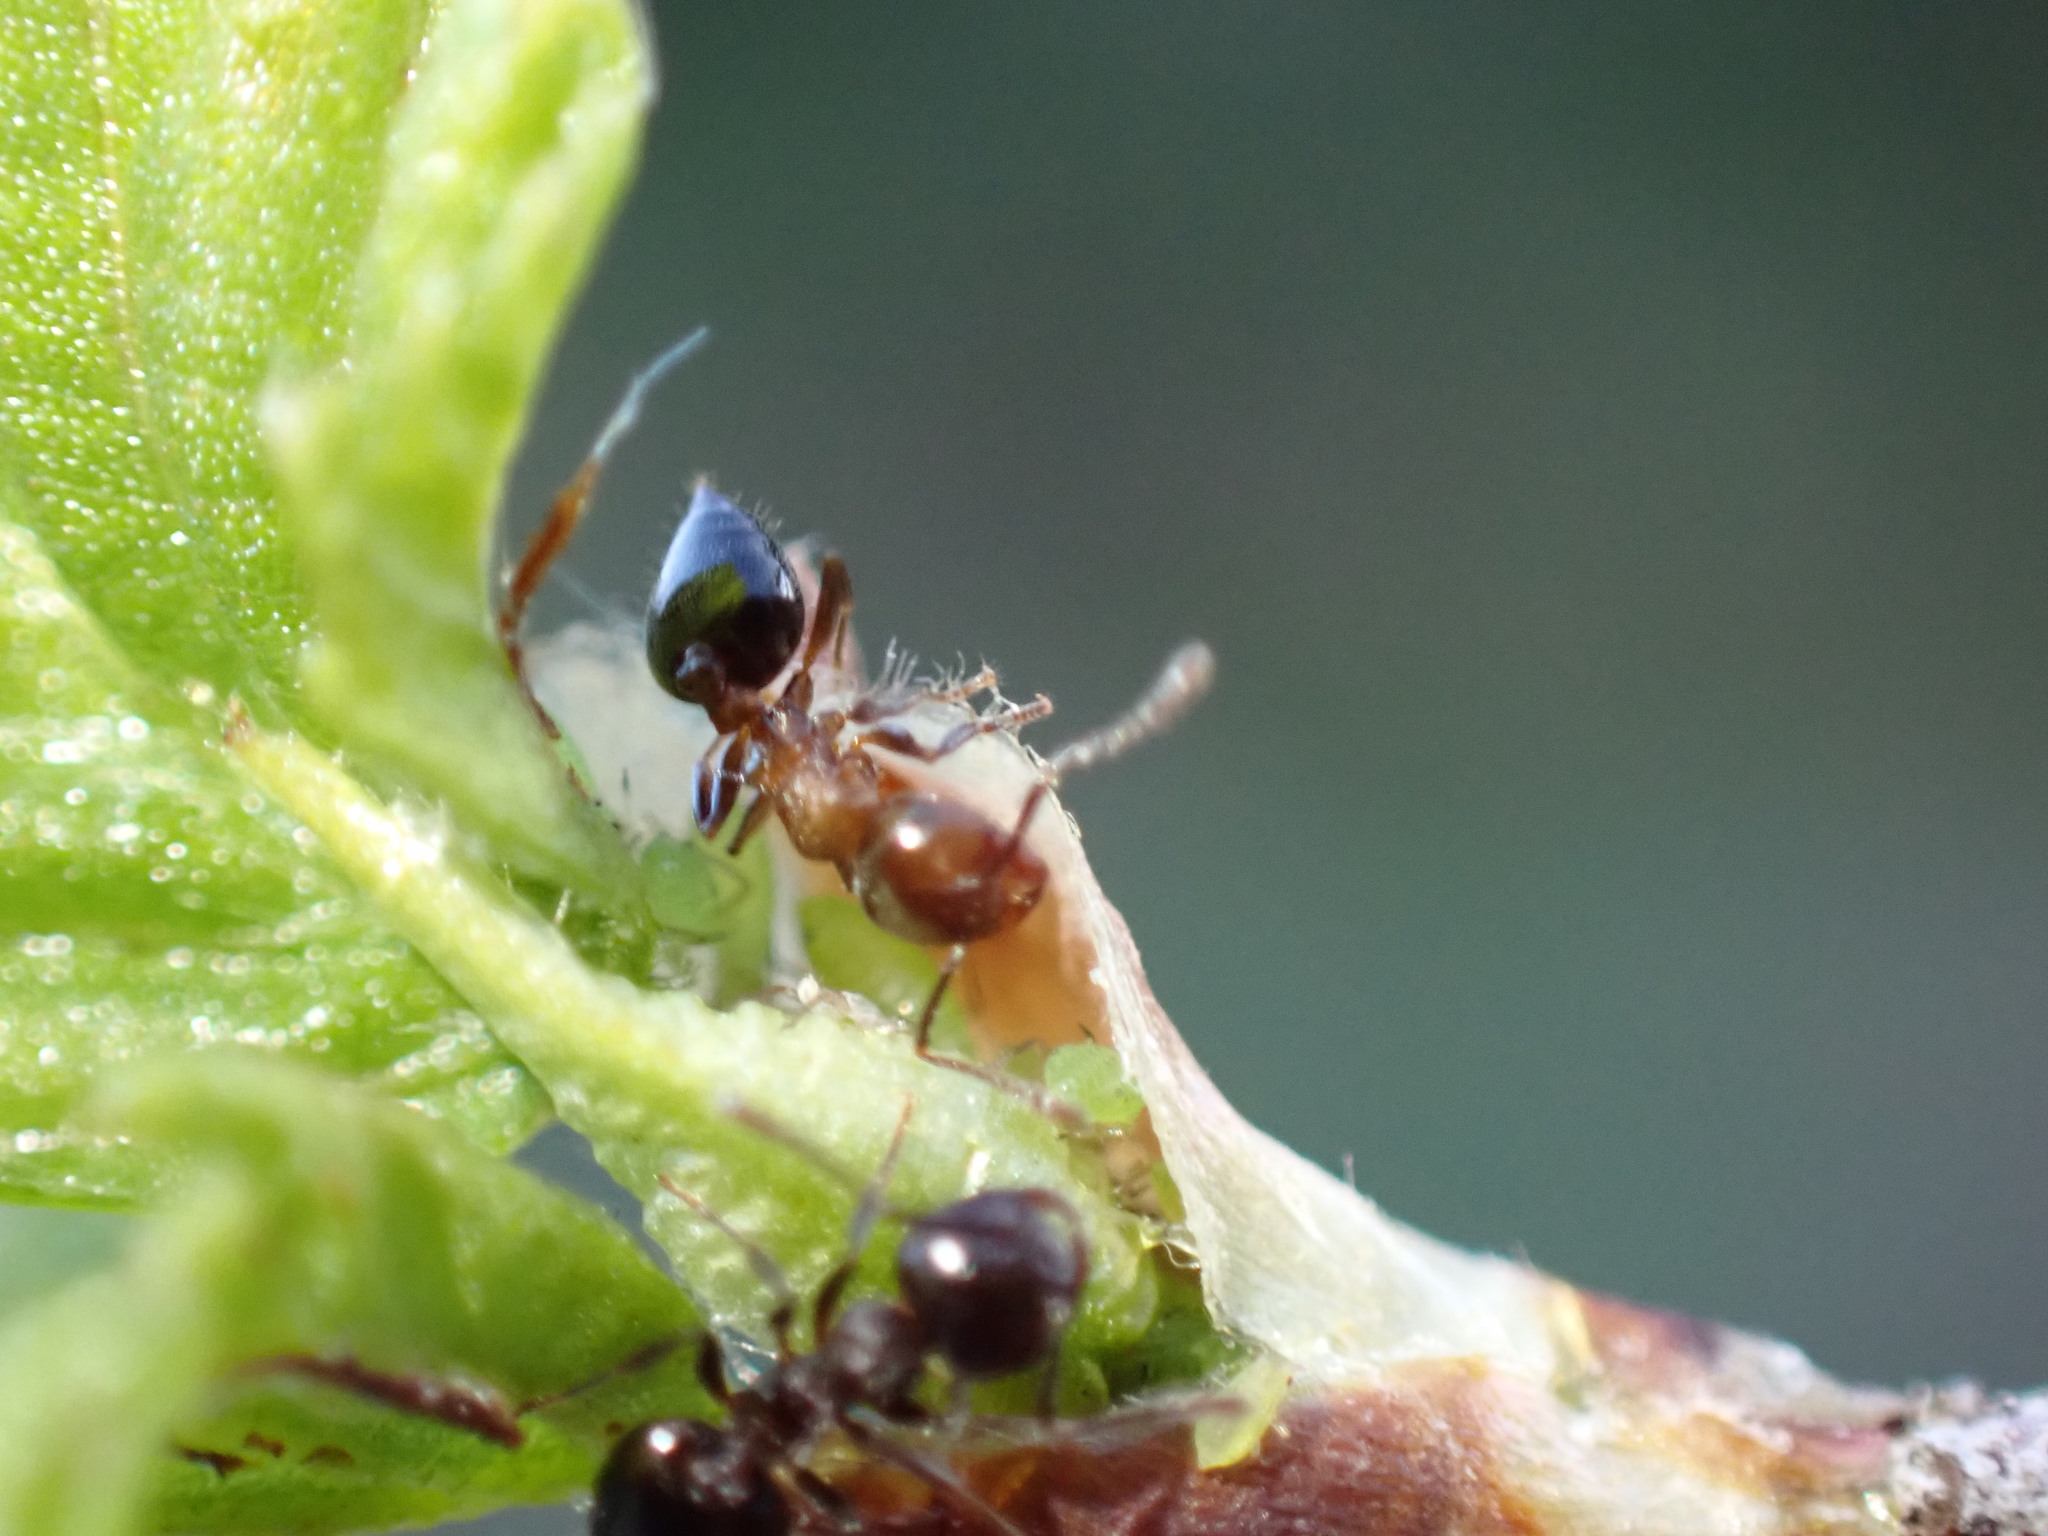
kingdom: Animalia
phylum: Arthropoda
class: Insecta
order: Hymenoptera
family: Formicidae
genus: Crematogaster
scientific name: Crematogaster
